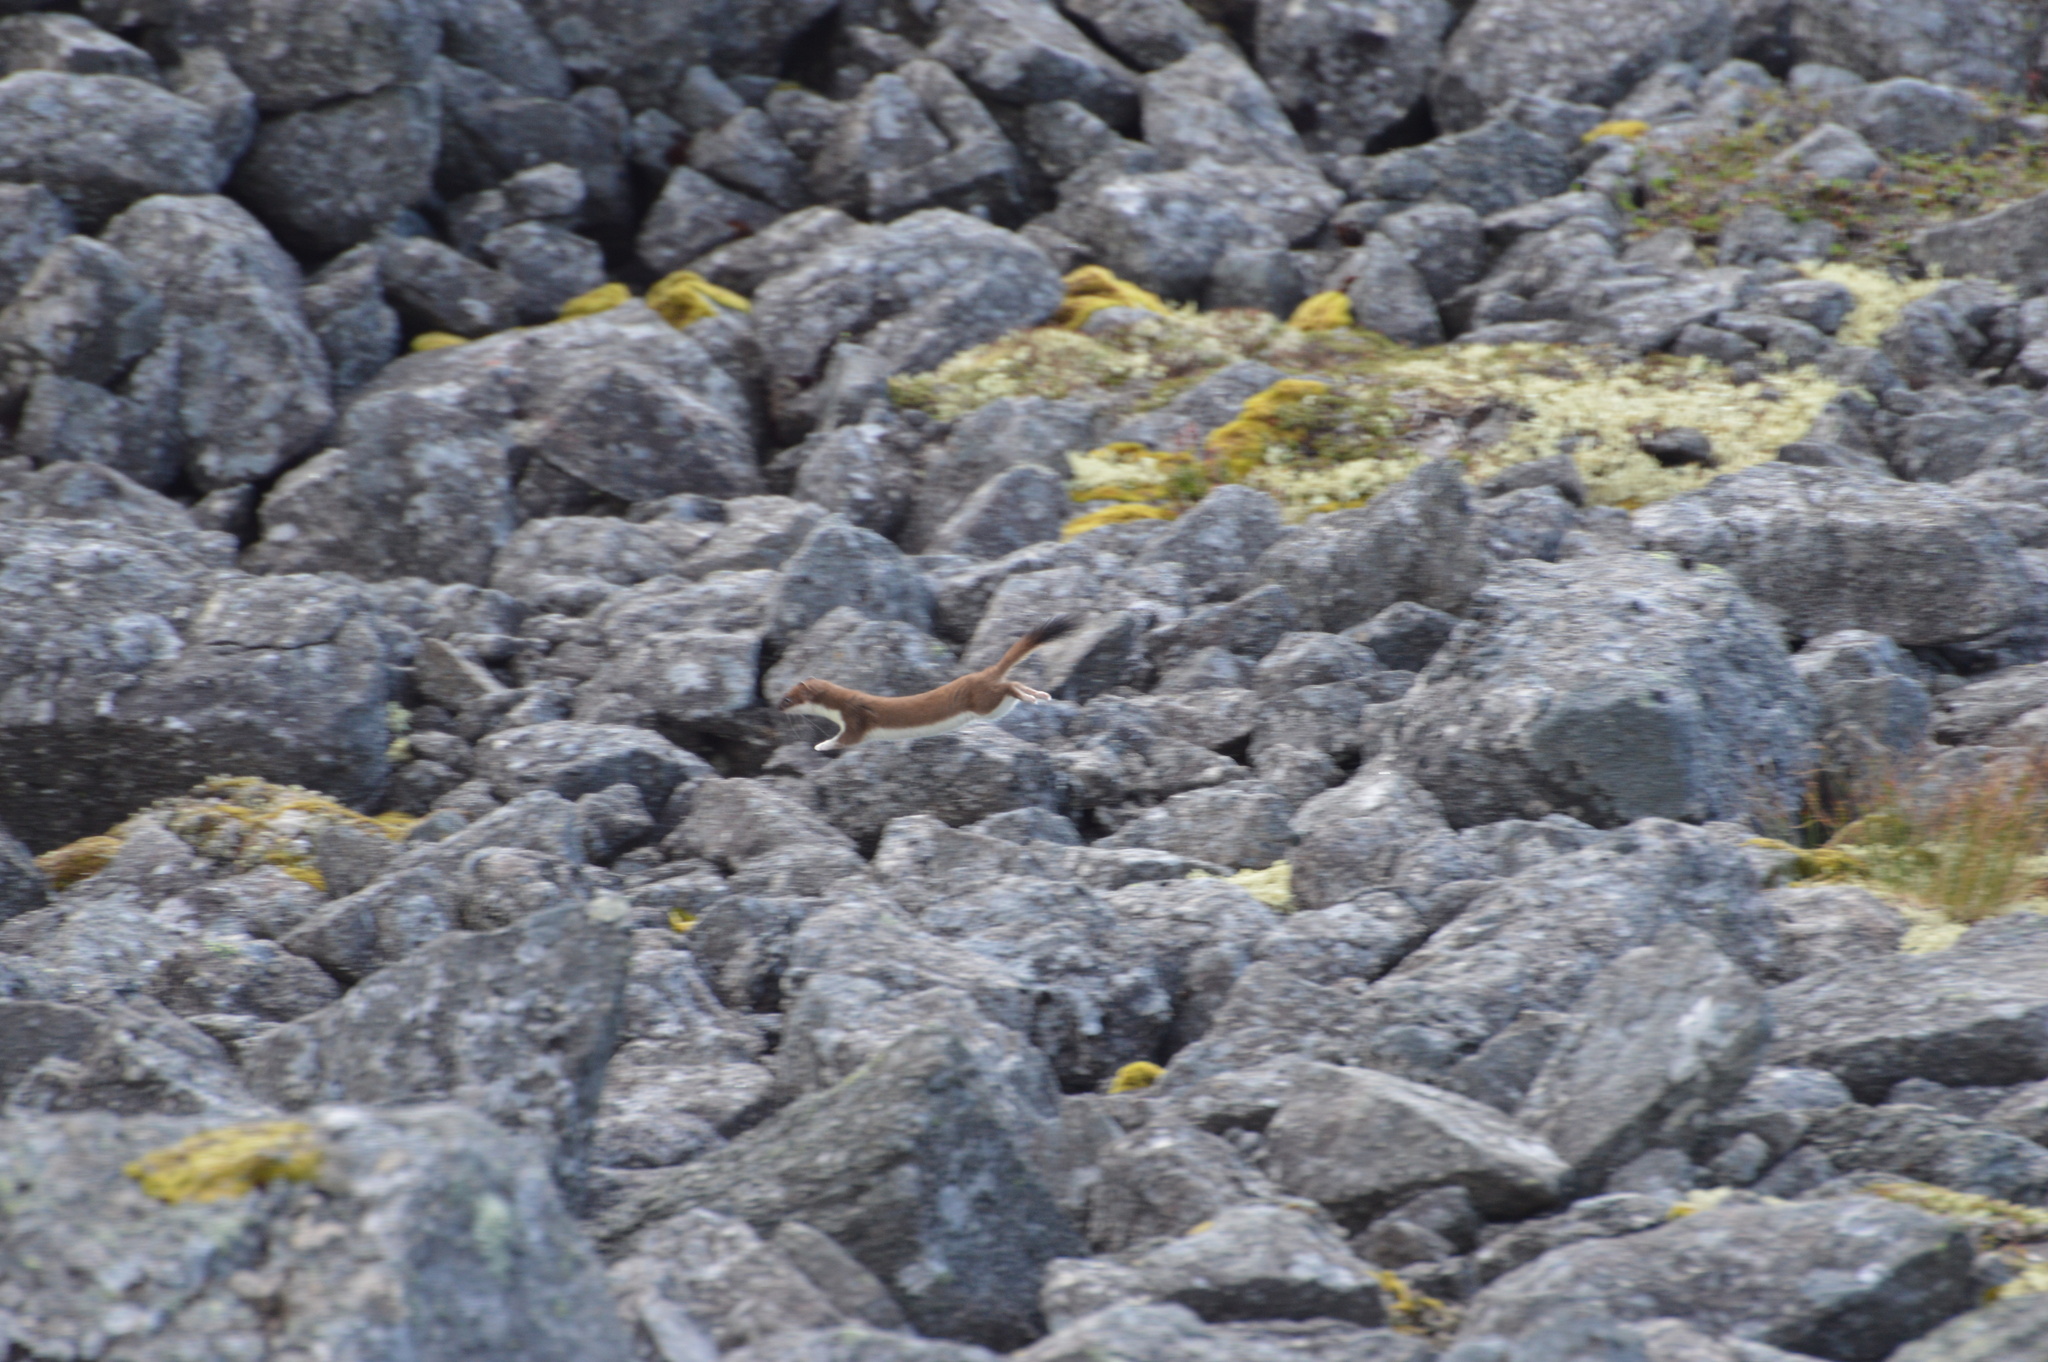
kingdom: Animalia
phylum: Chordata
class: Mammalia
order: Carnivora
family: Mustelidae
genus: Mustela
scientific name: Mustela erminea
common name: Stoat
